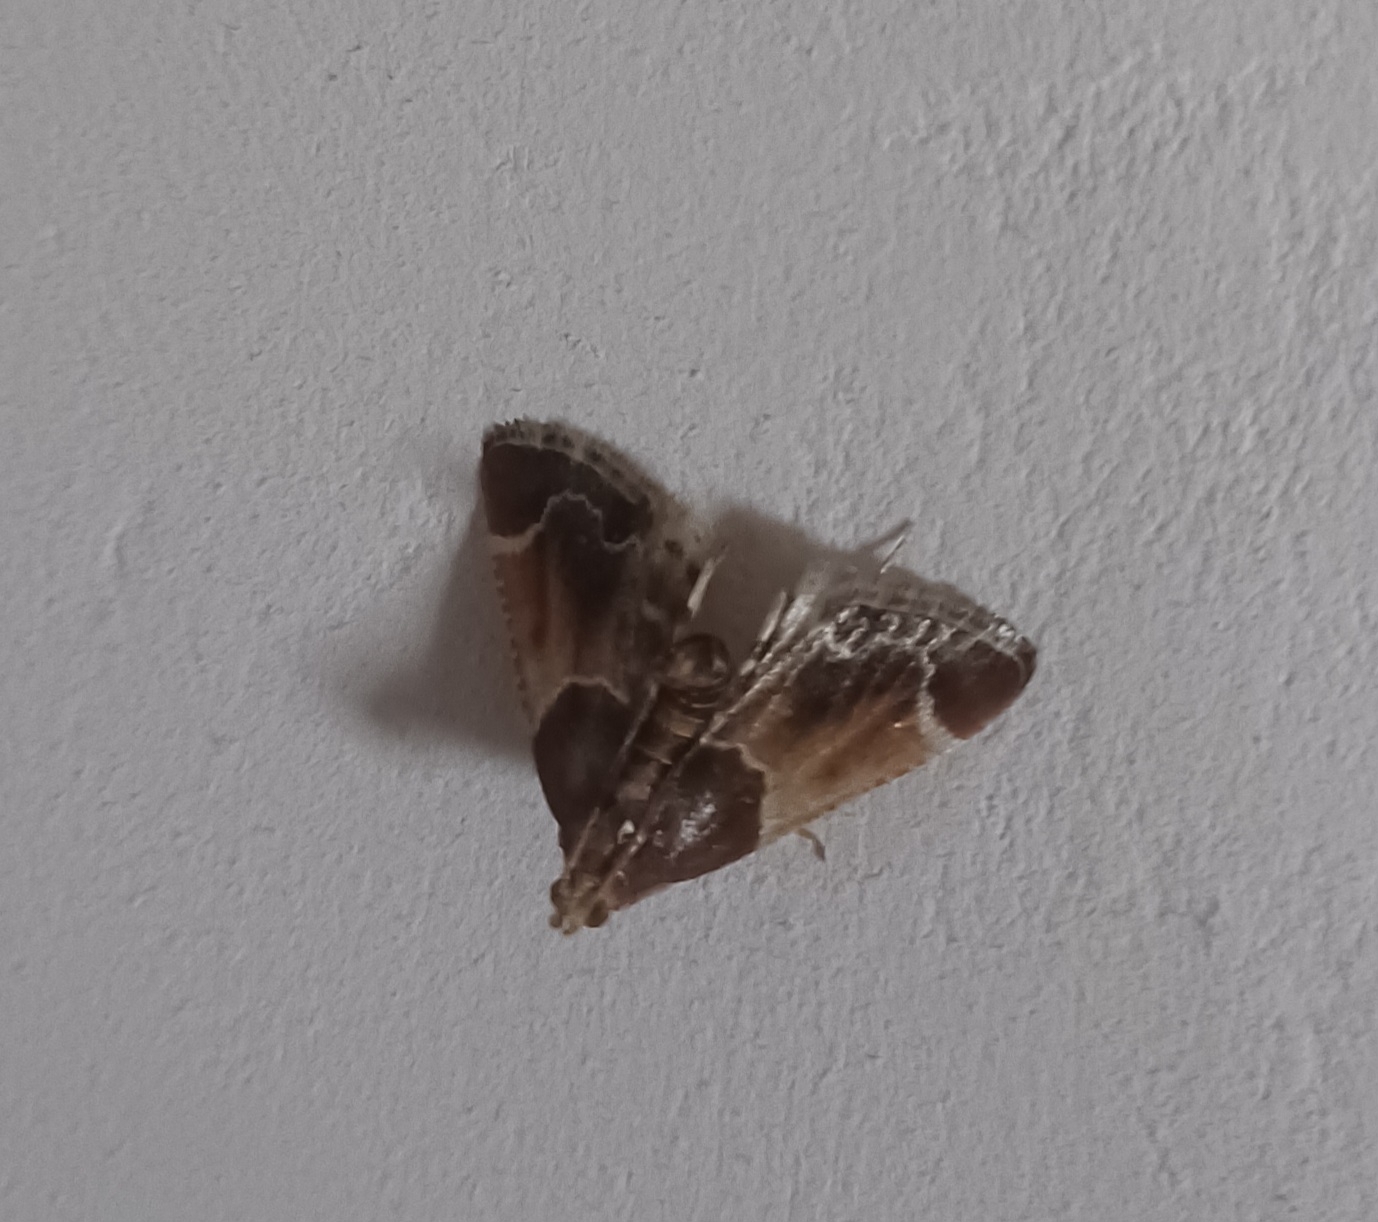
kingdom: Animalia
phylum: Arthropoda
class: Insecta
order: Lepidoptera
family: Pyralidae
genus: Pyralis
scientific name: Pyralis farinalis
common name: Meal moth
